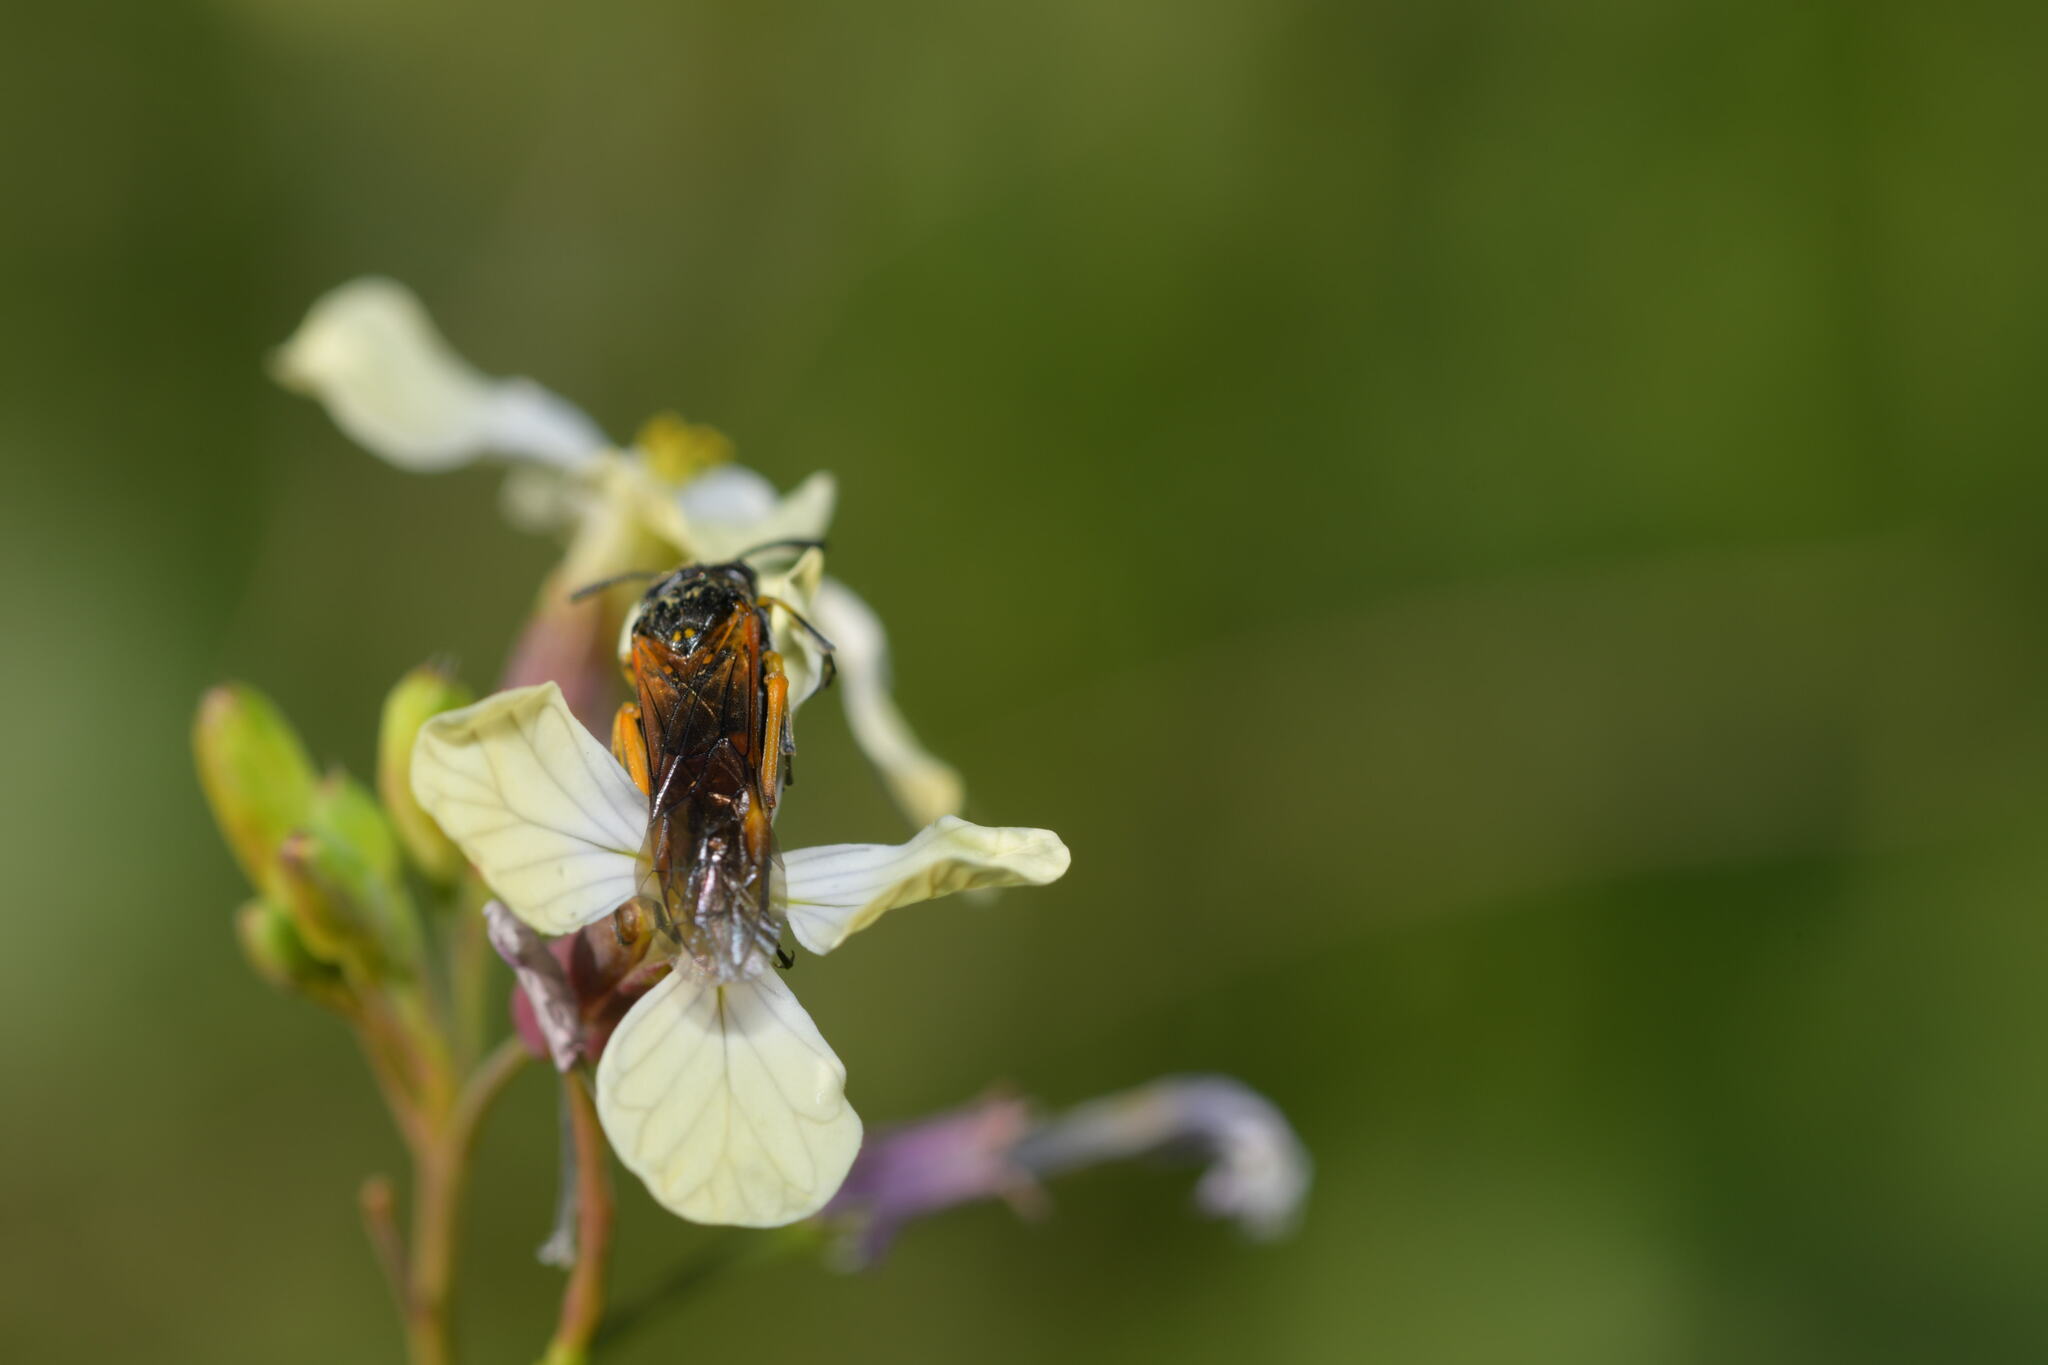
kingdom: Animalia
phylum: Arthropoda
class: Insecta
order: Hymenoptera
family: Tenthredinidae
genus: Tenthredo
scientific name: Tenthredo varicarpus
